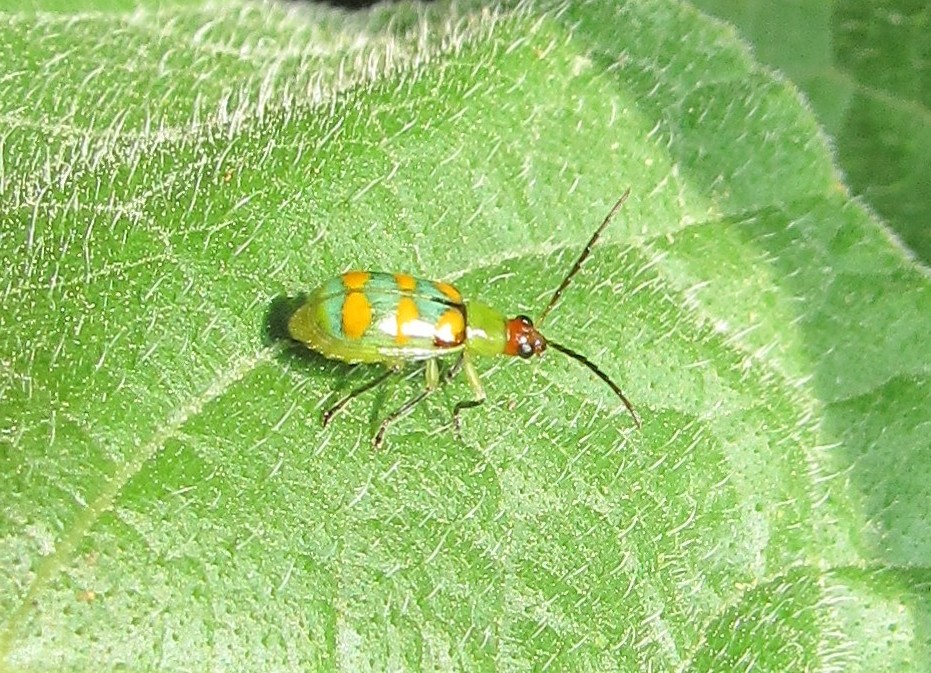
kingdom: Animalia
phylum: Arthropoda
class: Insecta
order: Coleoptera
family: Chrysomelidae
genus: Diabrotica
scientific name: Diabrotica speciosa
